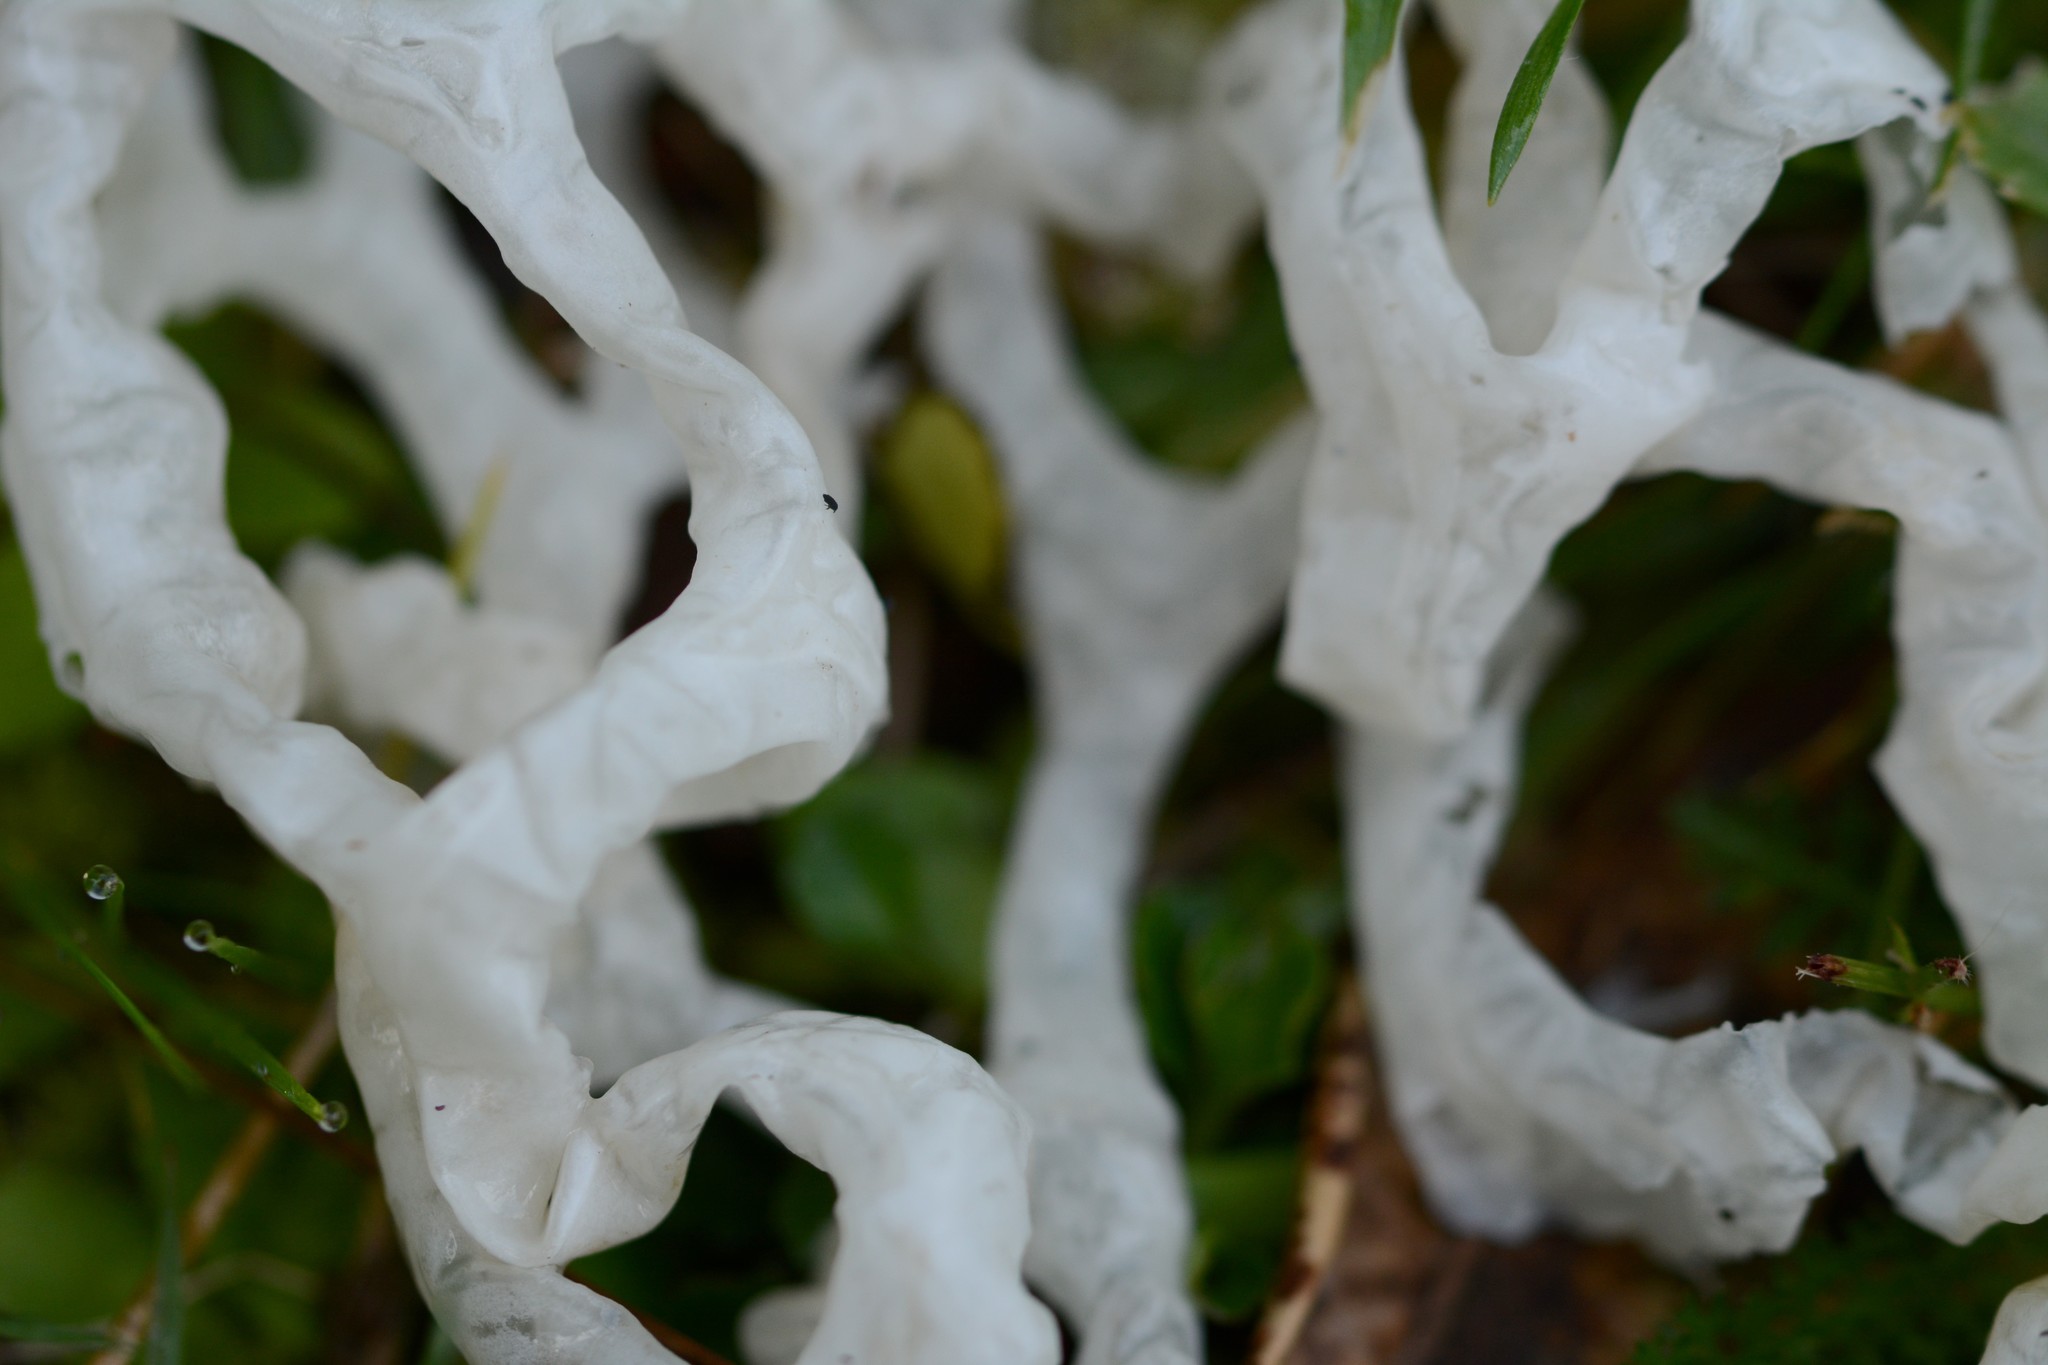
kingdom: Fungi
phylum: Basidiomycota
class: Agaricomycetes
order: Phallales
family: Phallaceae
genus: Ileodictyon
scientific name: Ileodictyon cibarium
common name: Basket fungus
